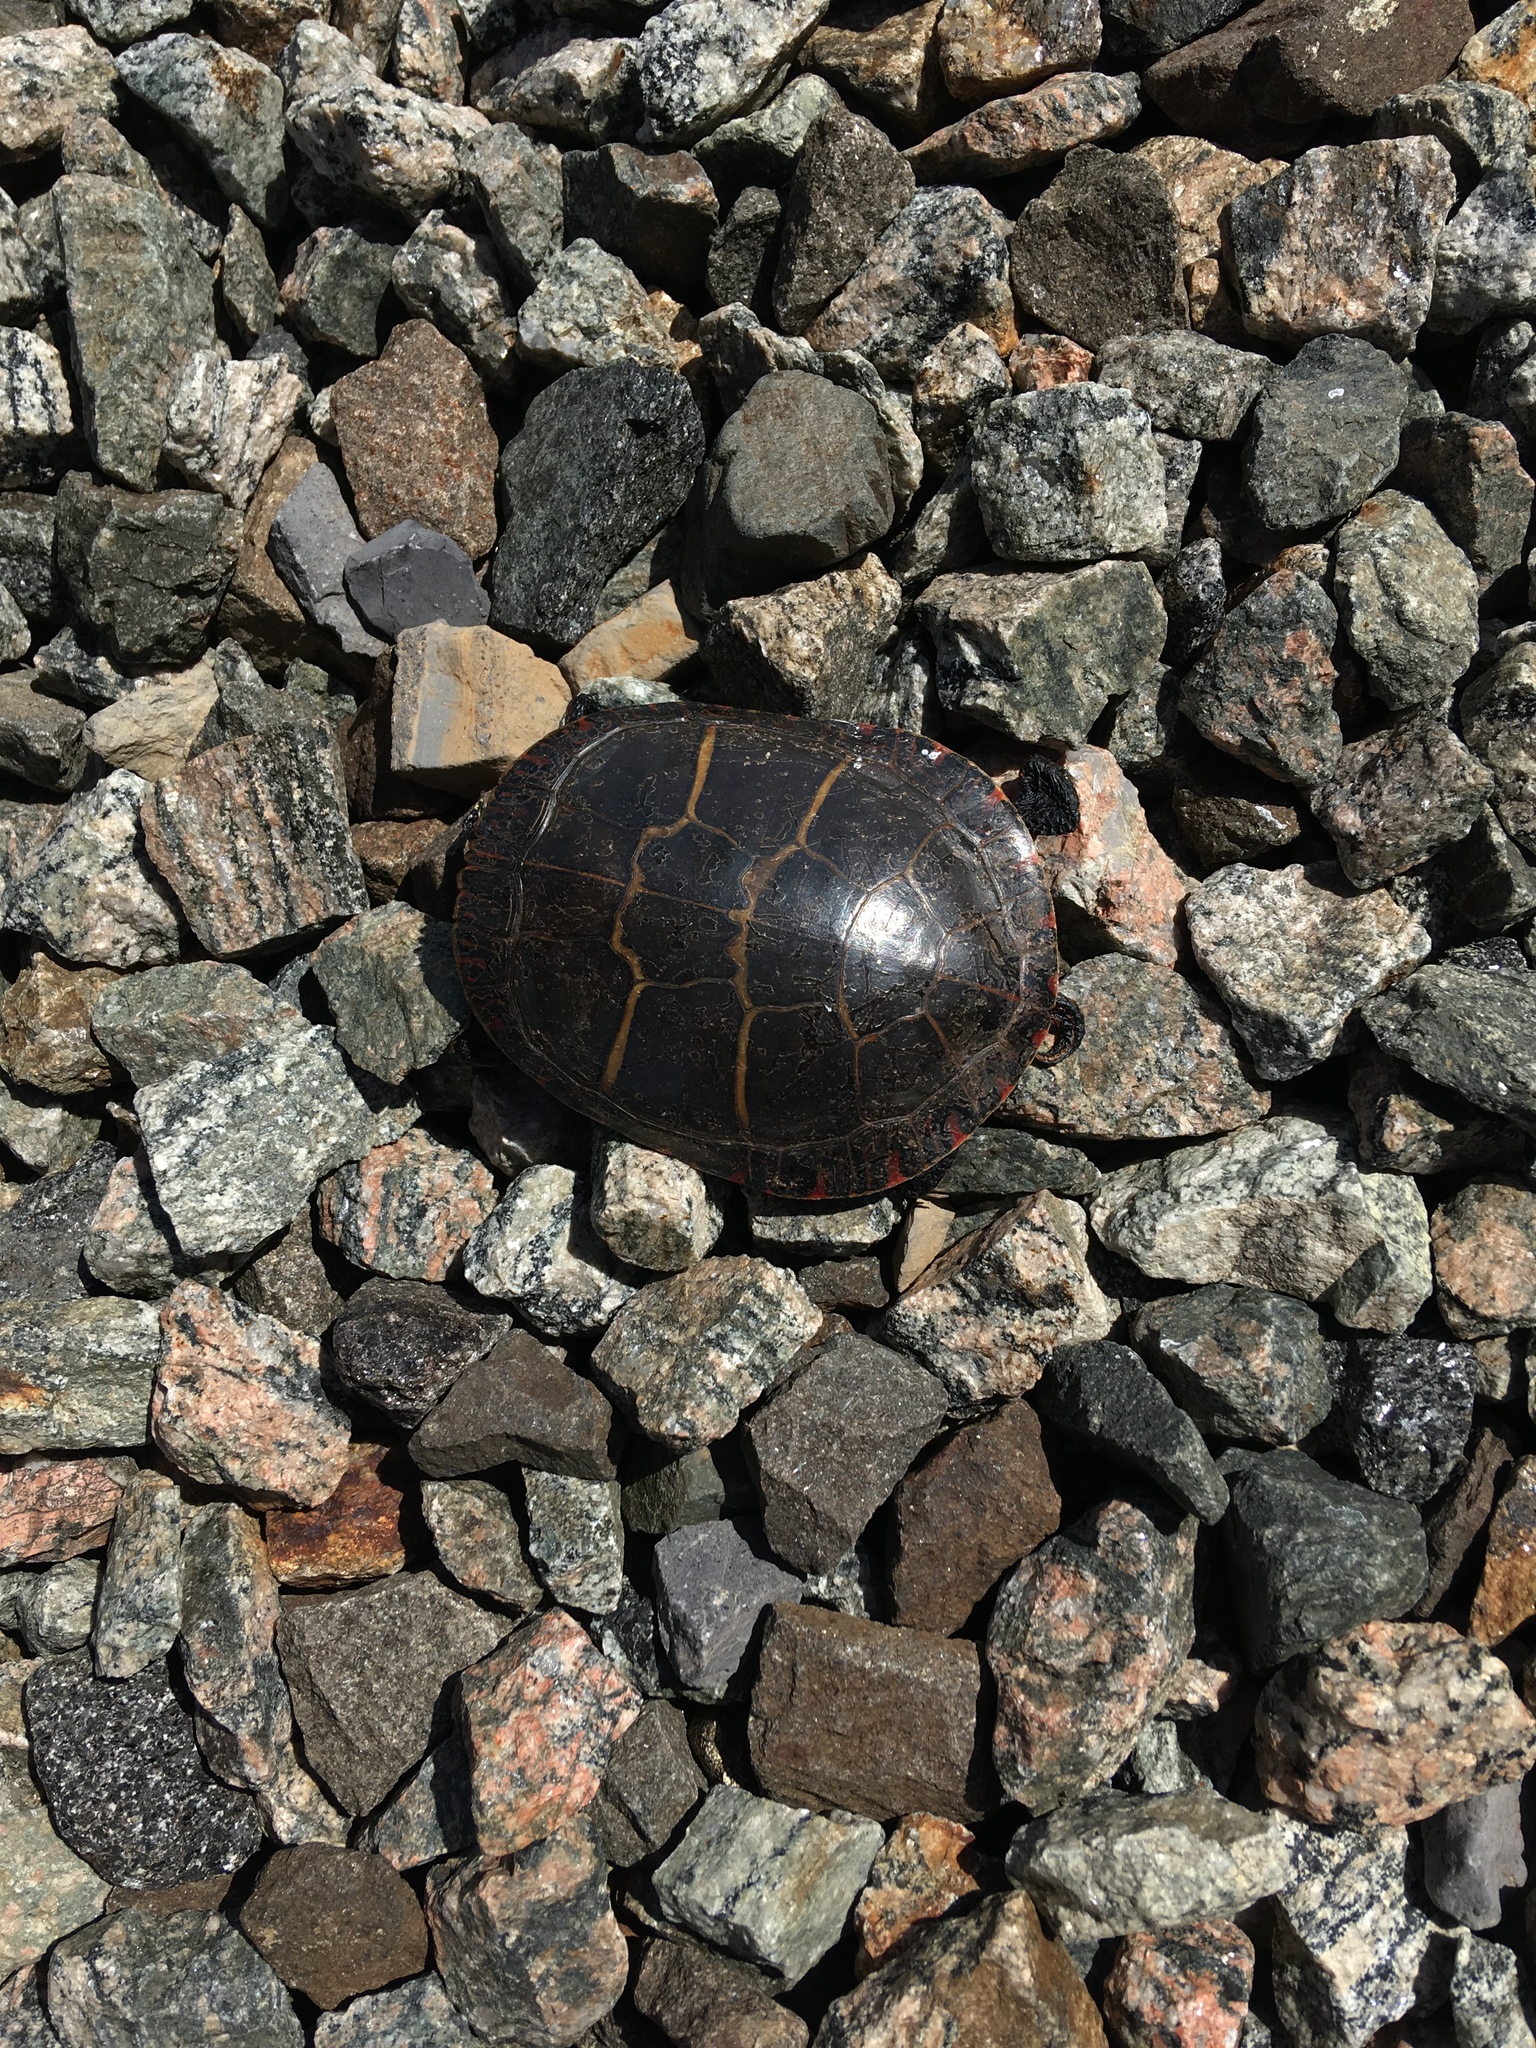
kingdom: Animalia
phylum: Chordata
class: Testudines
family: Emydidae
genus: Chrysemys
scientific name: Chrysemys picta
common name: Painted turtle
